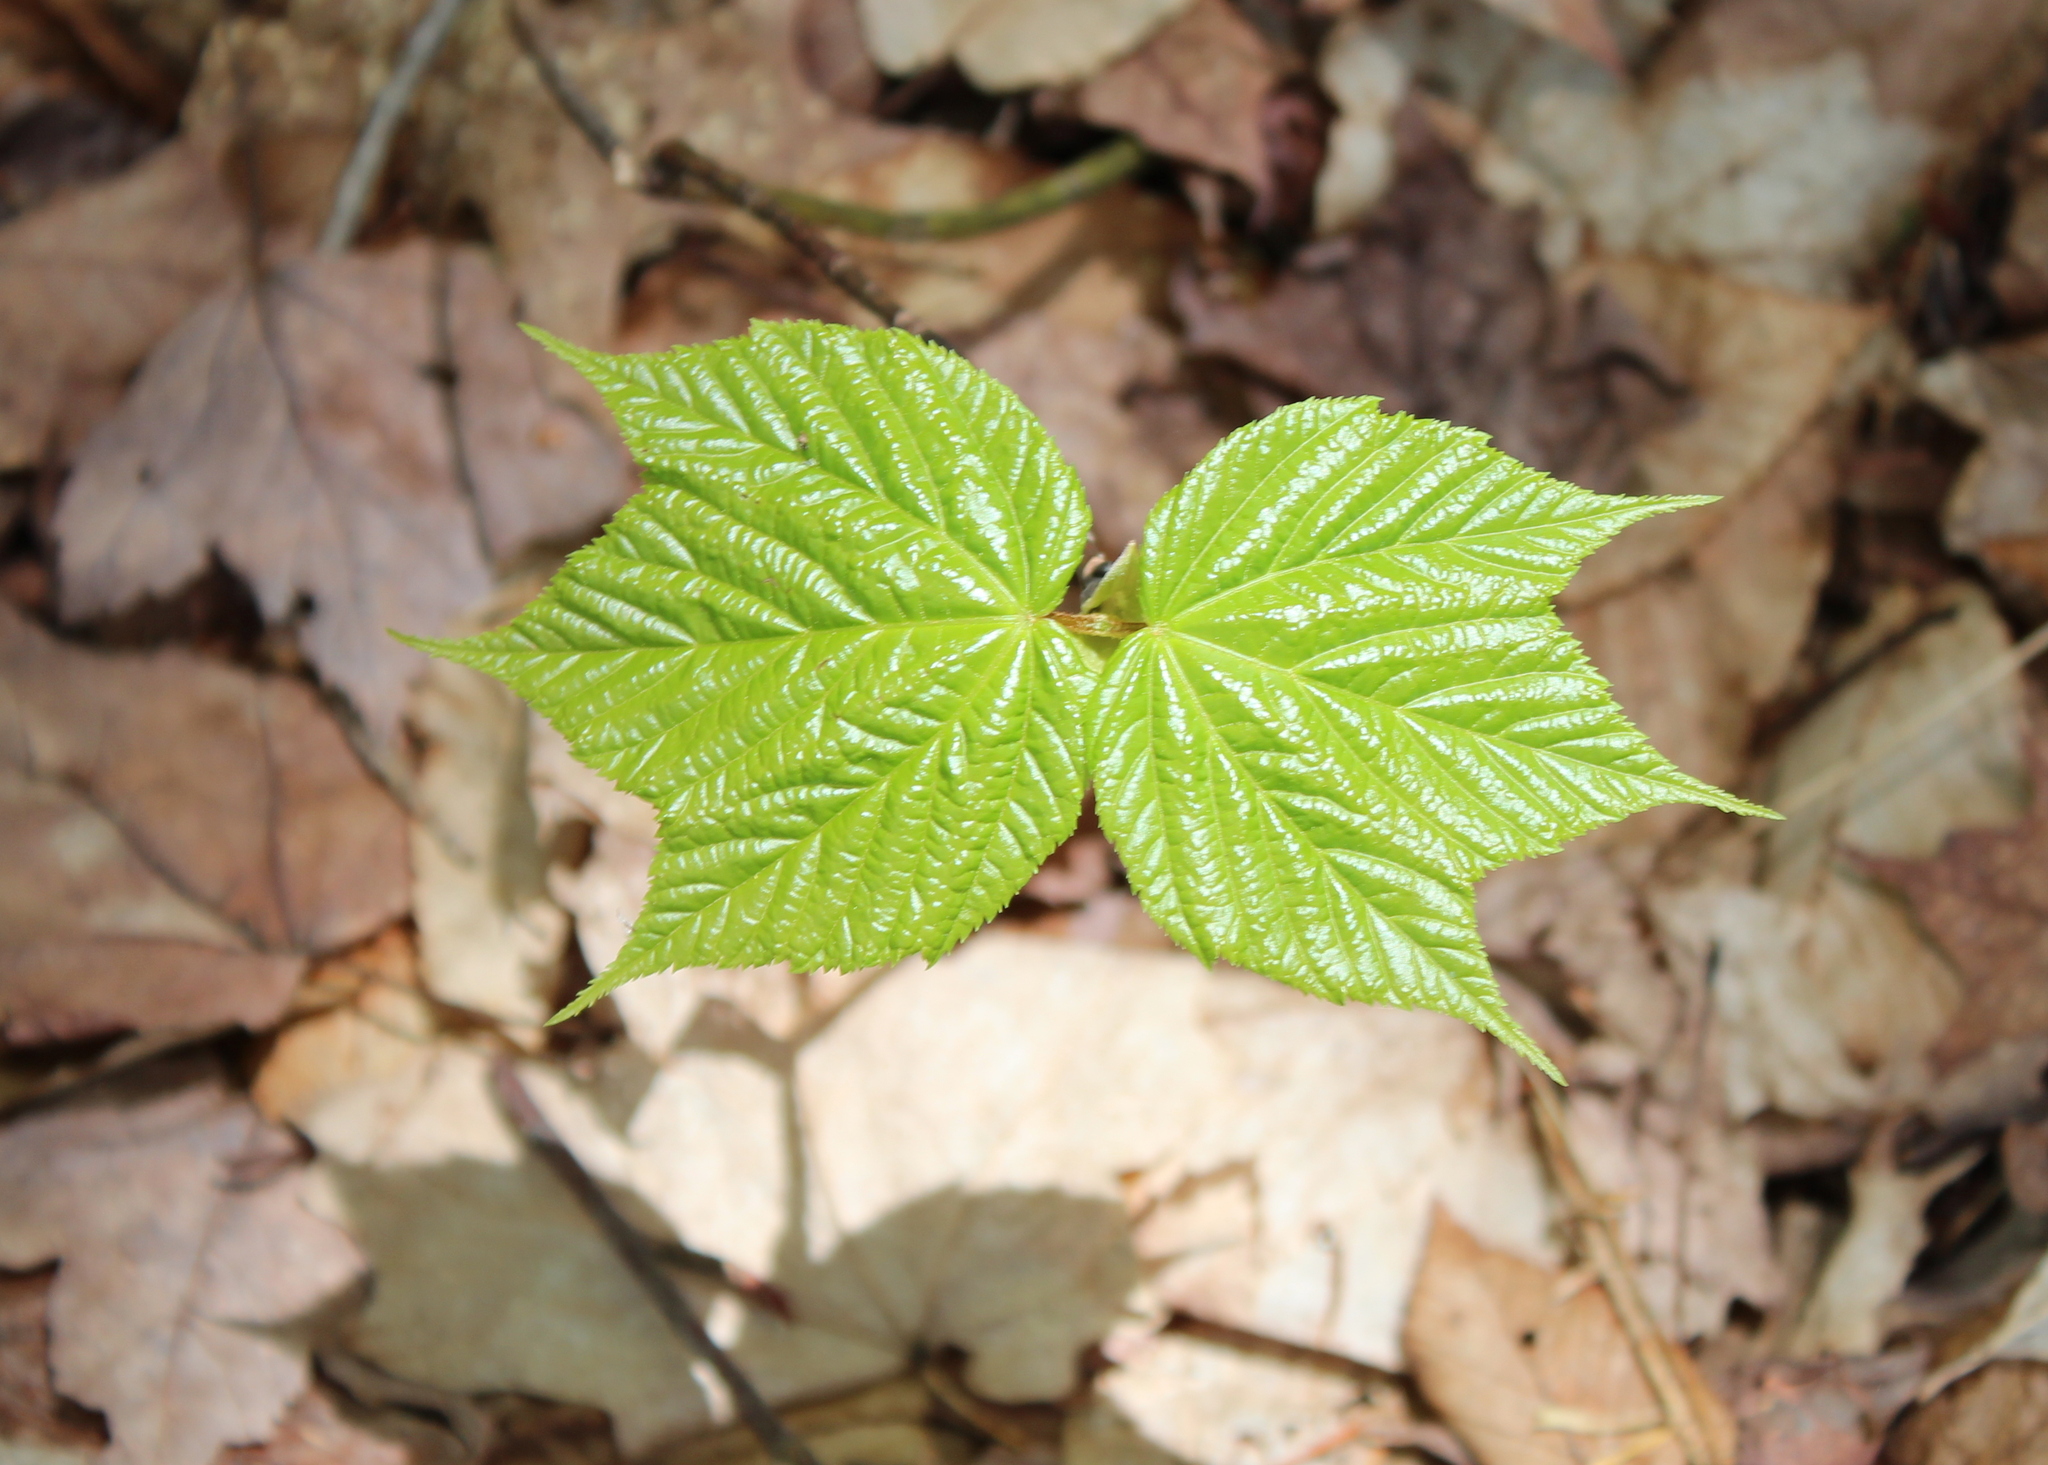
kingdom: Plantae
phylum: Tracheophyta
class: Magnoliopsida
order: Sapindales
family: Sapindaceae
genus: Acer
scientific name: Acer pensylvanicum
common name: Moosewood
